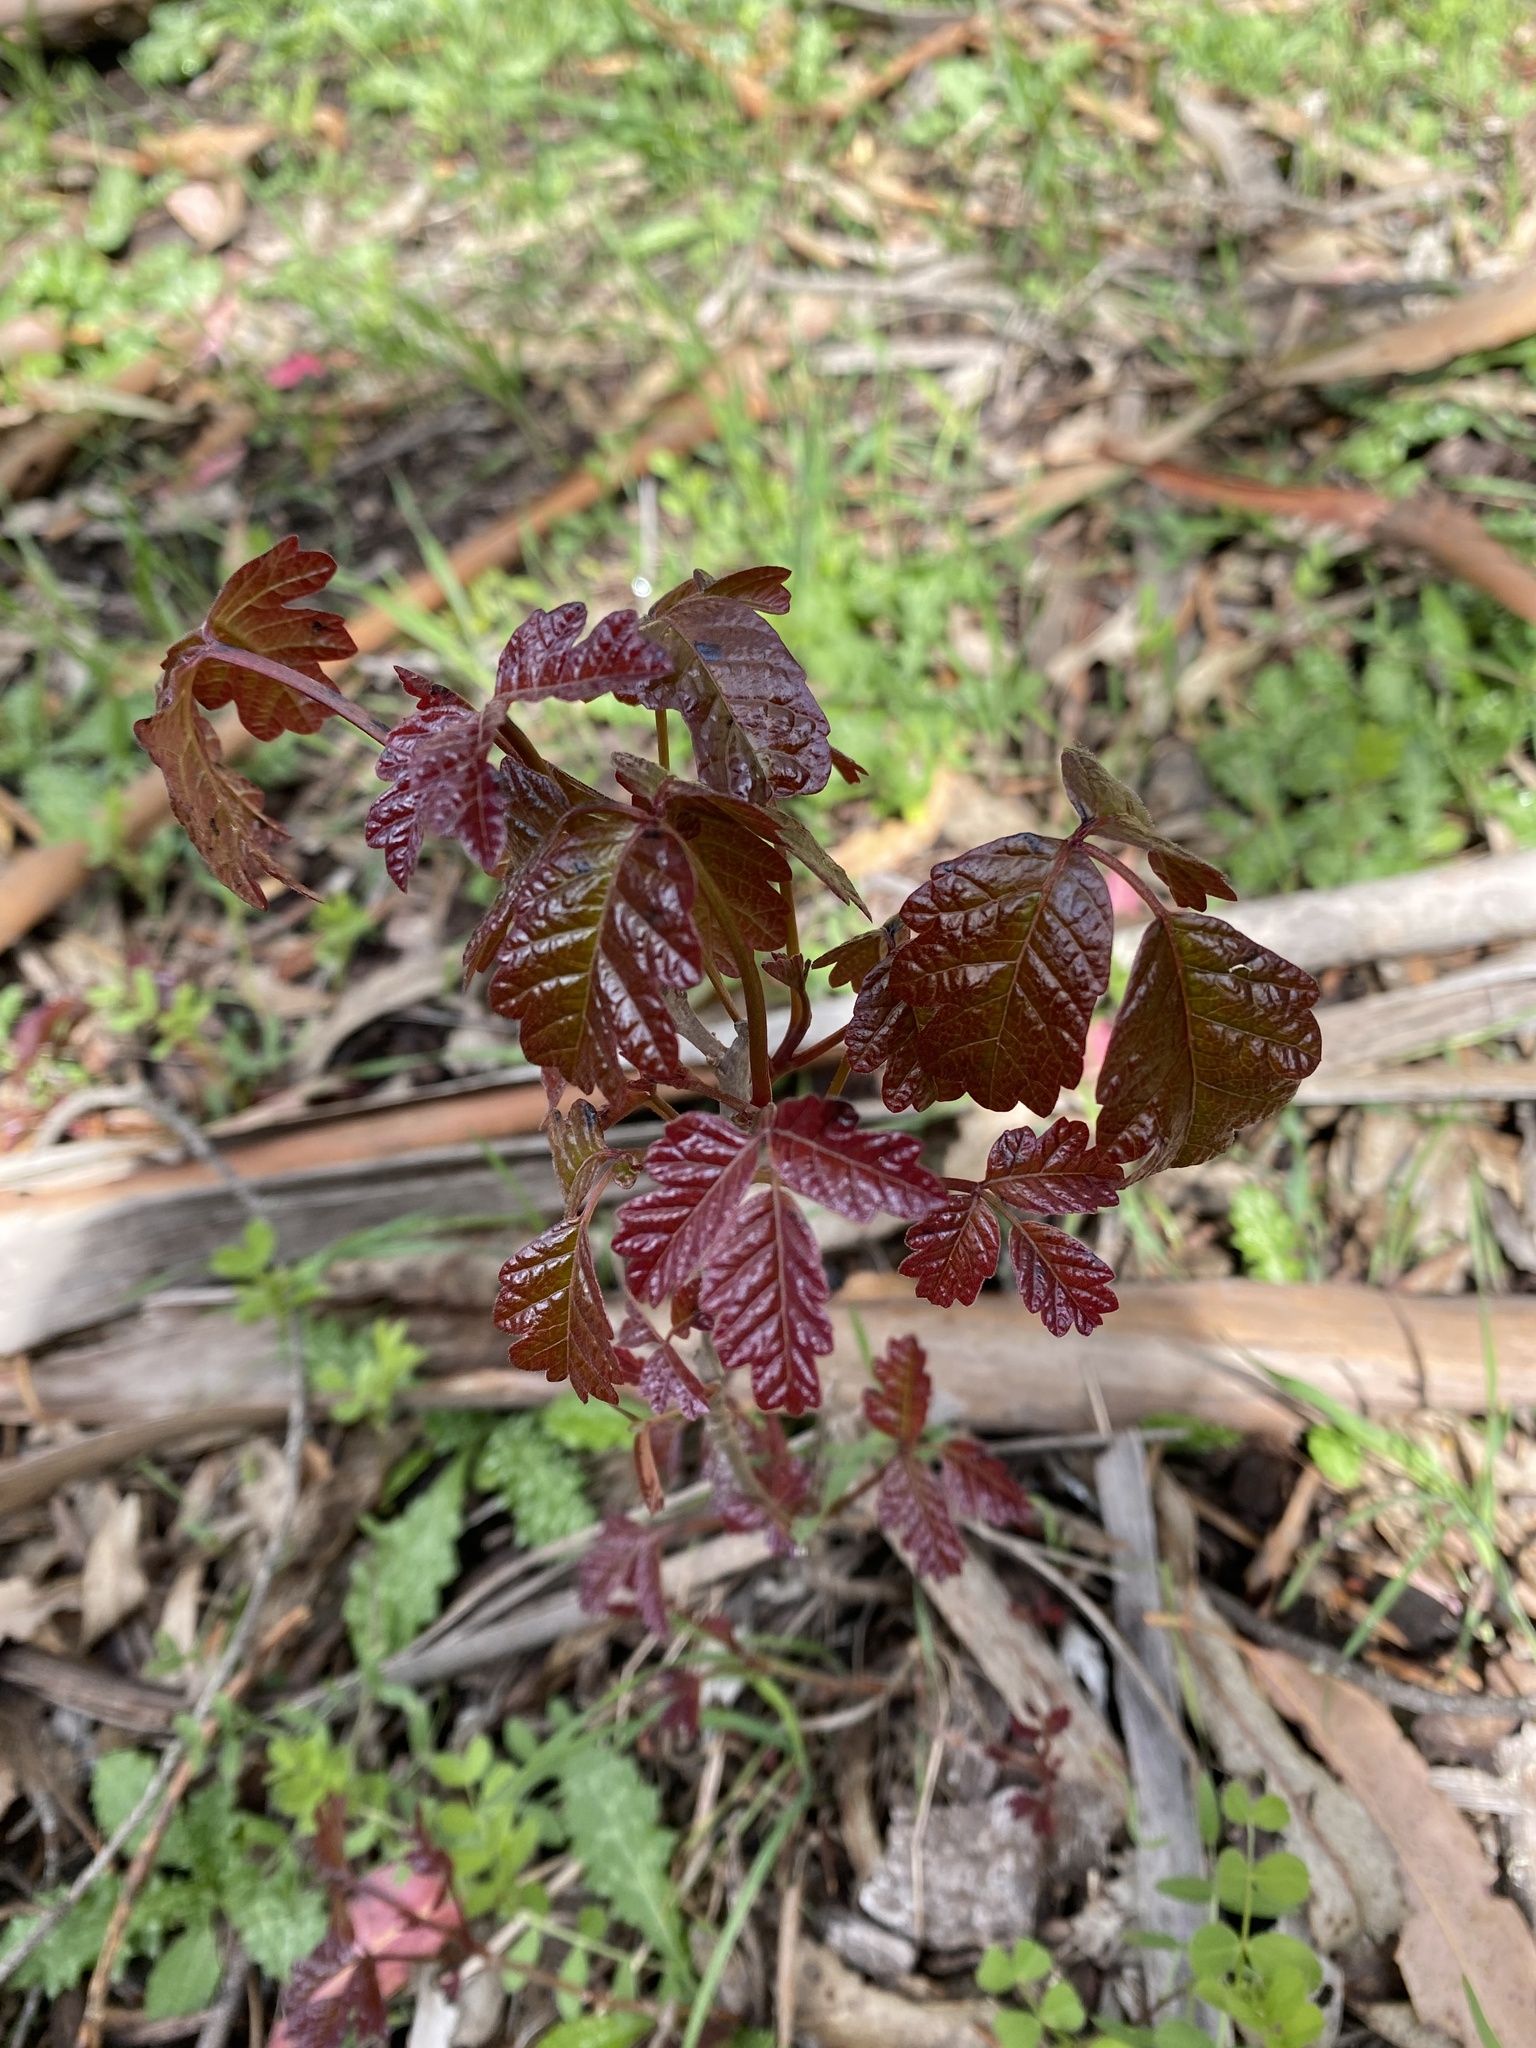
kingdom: Plantae
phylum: Tracheophyta
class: Magnoliopsida
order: Sapindales
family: Anacardiaceae
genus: Toxicodendron
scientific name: Toxicodendron diversilobum
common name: Pacific poison-oak
